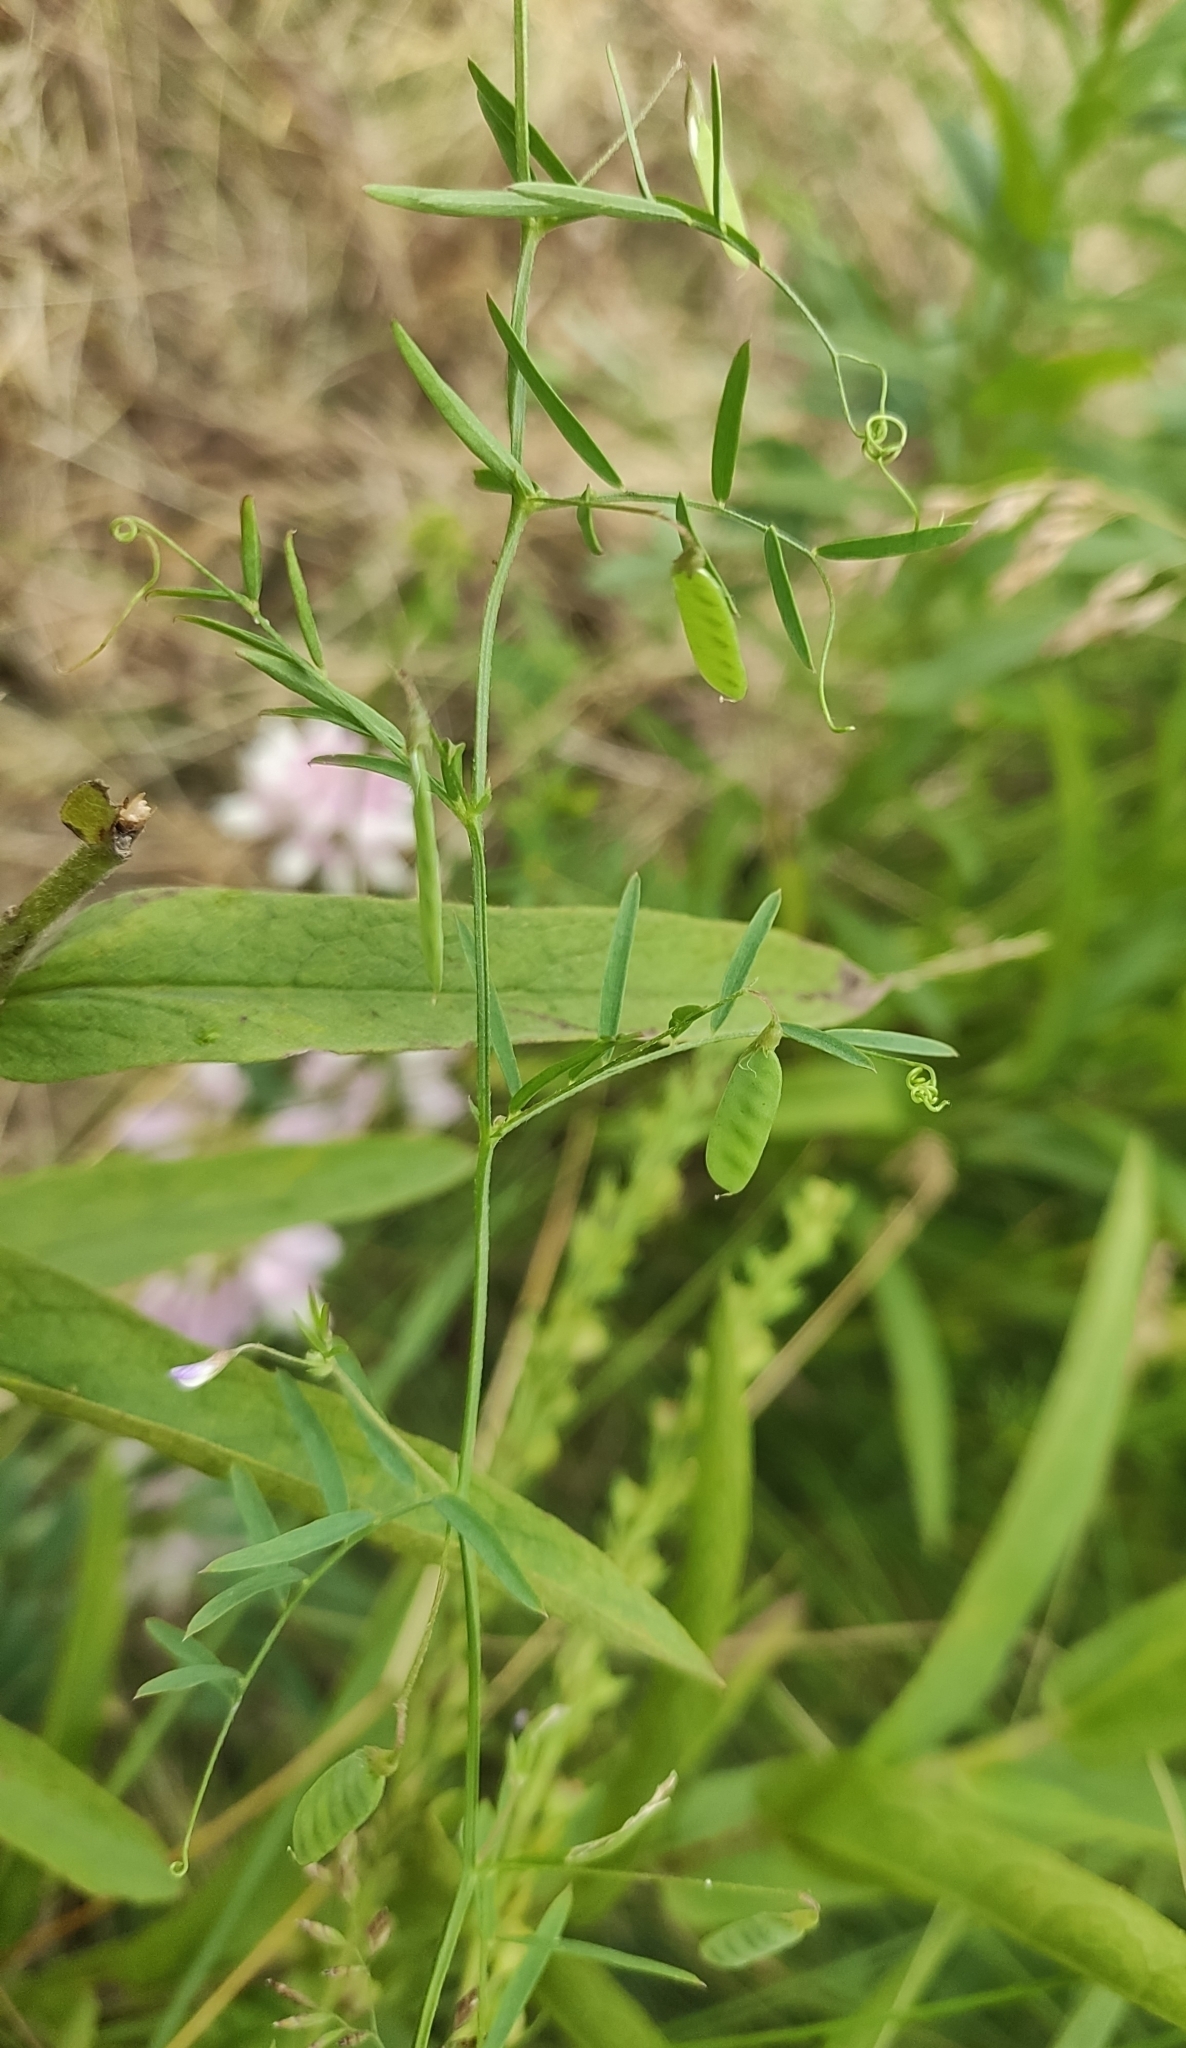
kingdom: Plantae
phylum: Tracheophyta
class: Magnoliopsida
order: Fabales
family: Fabaceae
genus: Vicia
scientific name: Vicia tetrasperma
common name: Smooth tare
